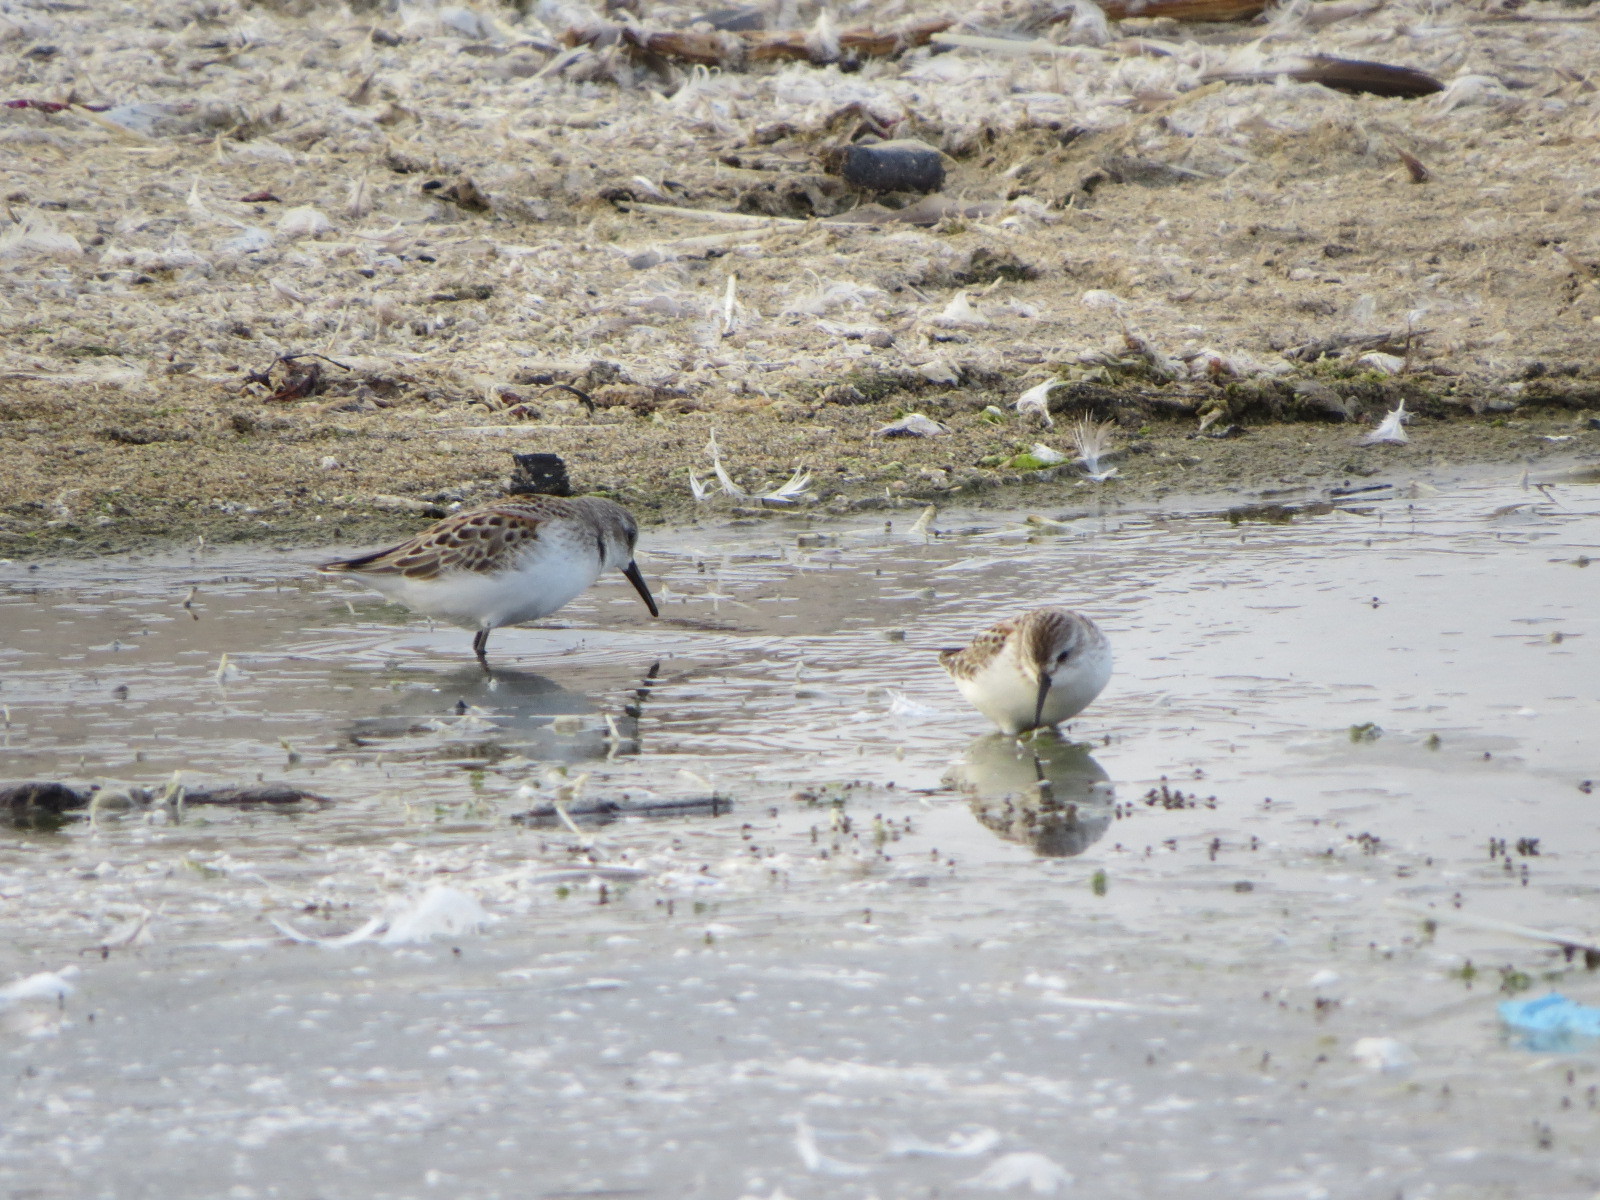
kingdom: Animalia
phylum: Chordata
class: Aves
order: Charadriiformes
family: Scolopacidae
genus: Calidris
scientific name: Calidris mauri
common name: Western sandpiper
